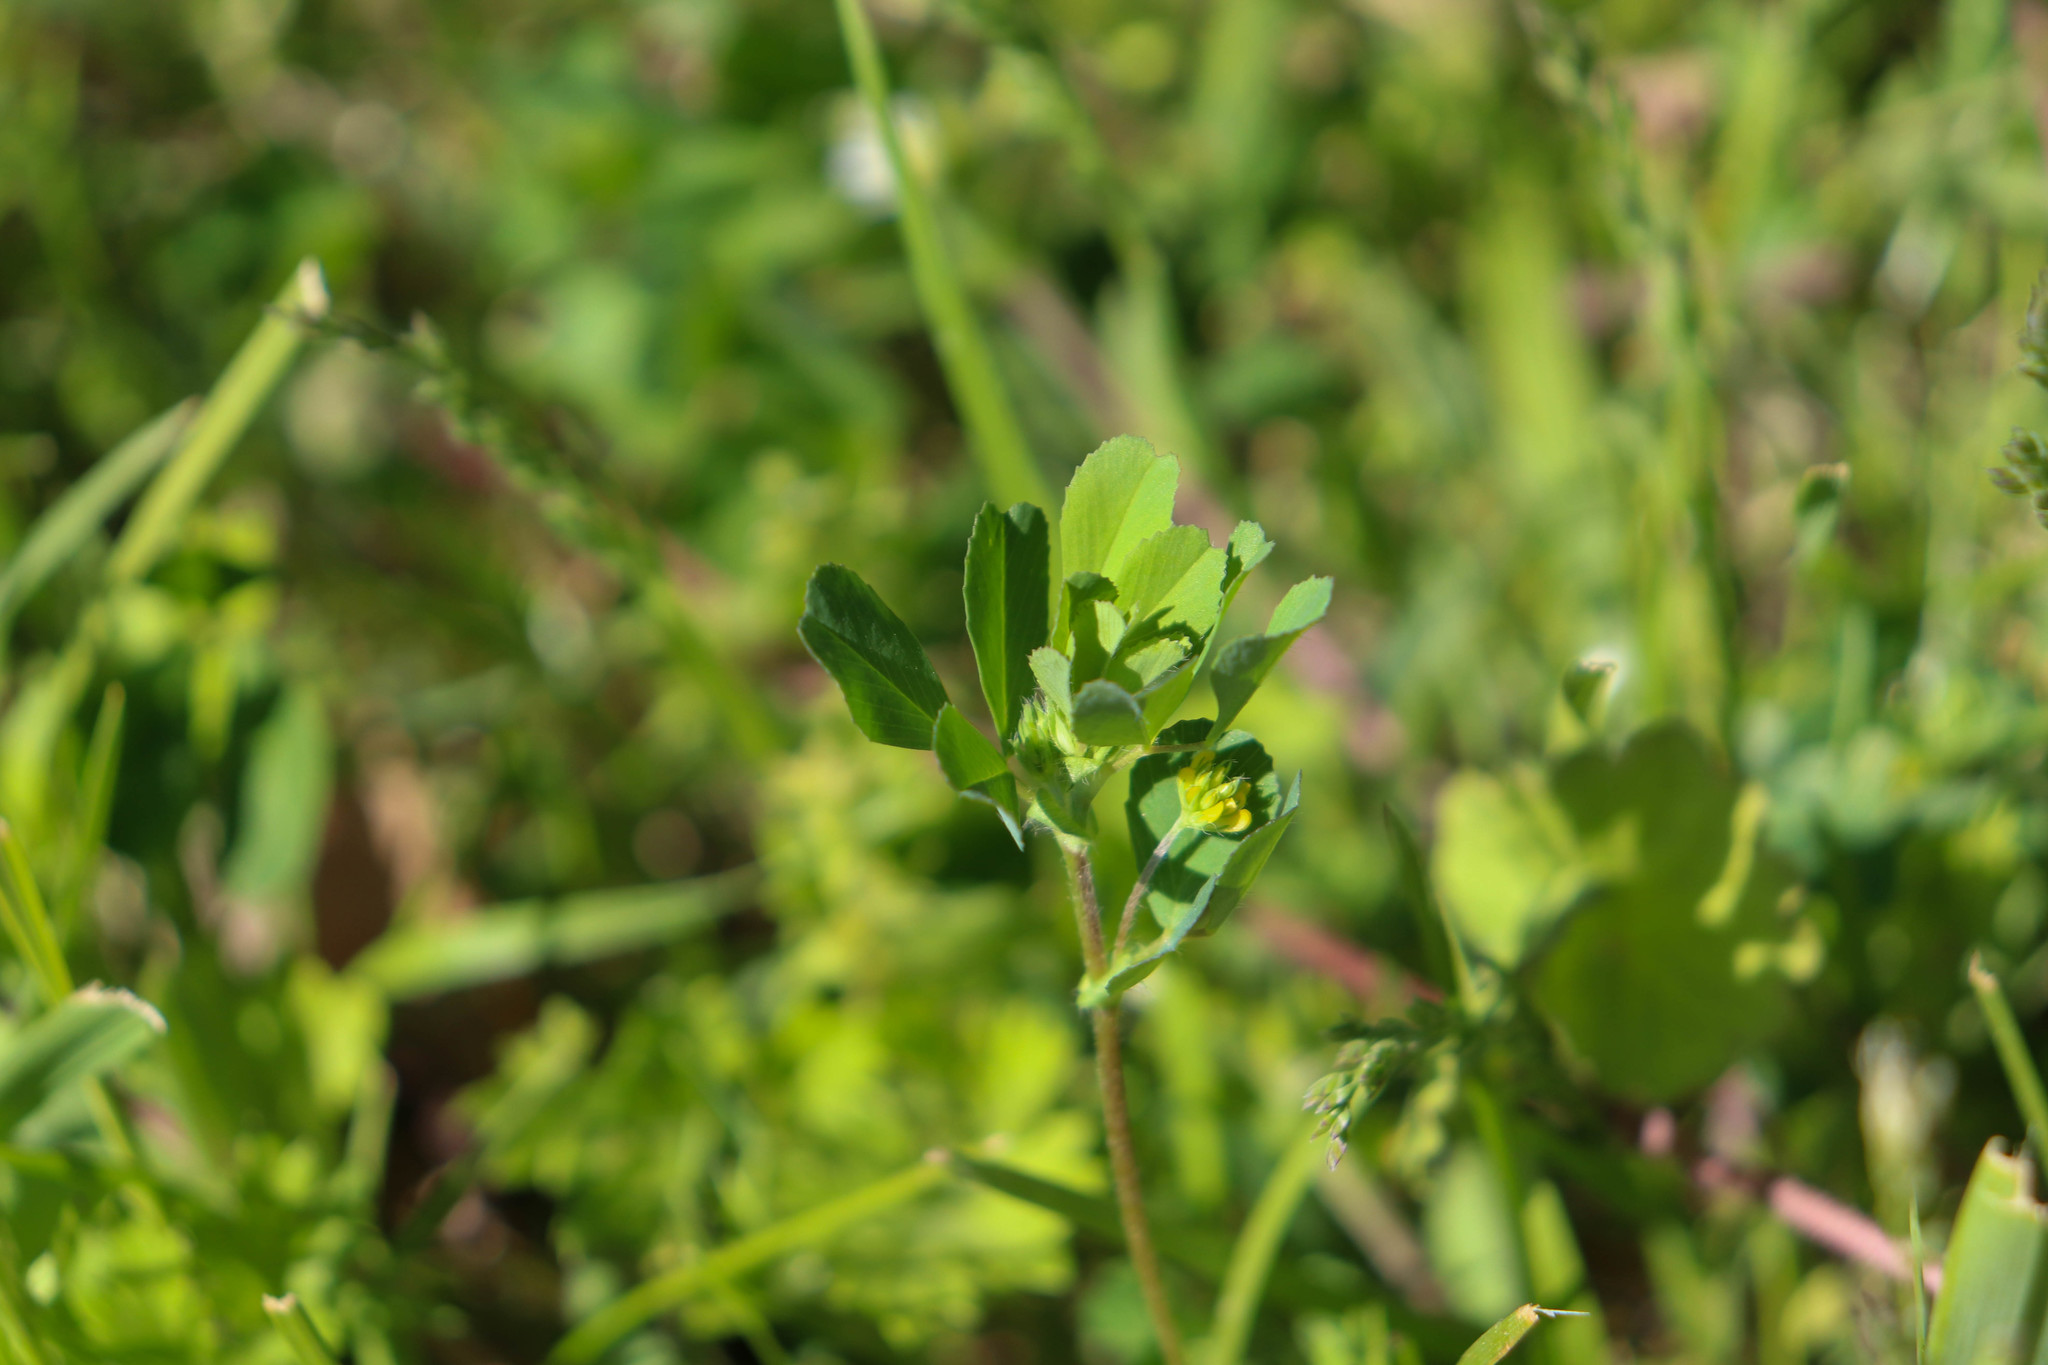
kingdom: Plantae
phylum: Tracheophyta
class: Magnoliopsida
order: Fabales
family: Fabaceae
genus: Trifolium
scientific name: Trifolium dubium
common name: Suckling clover
